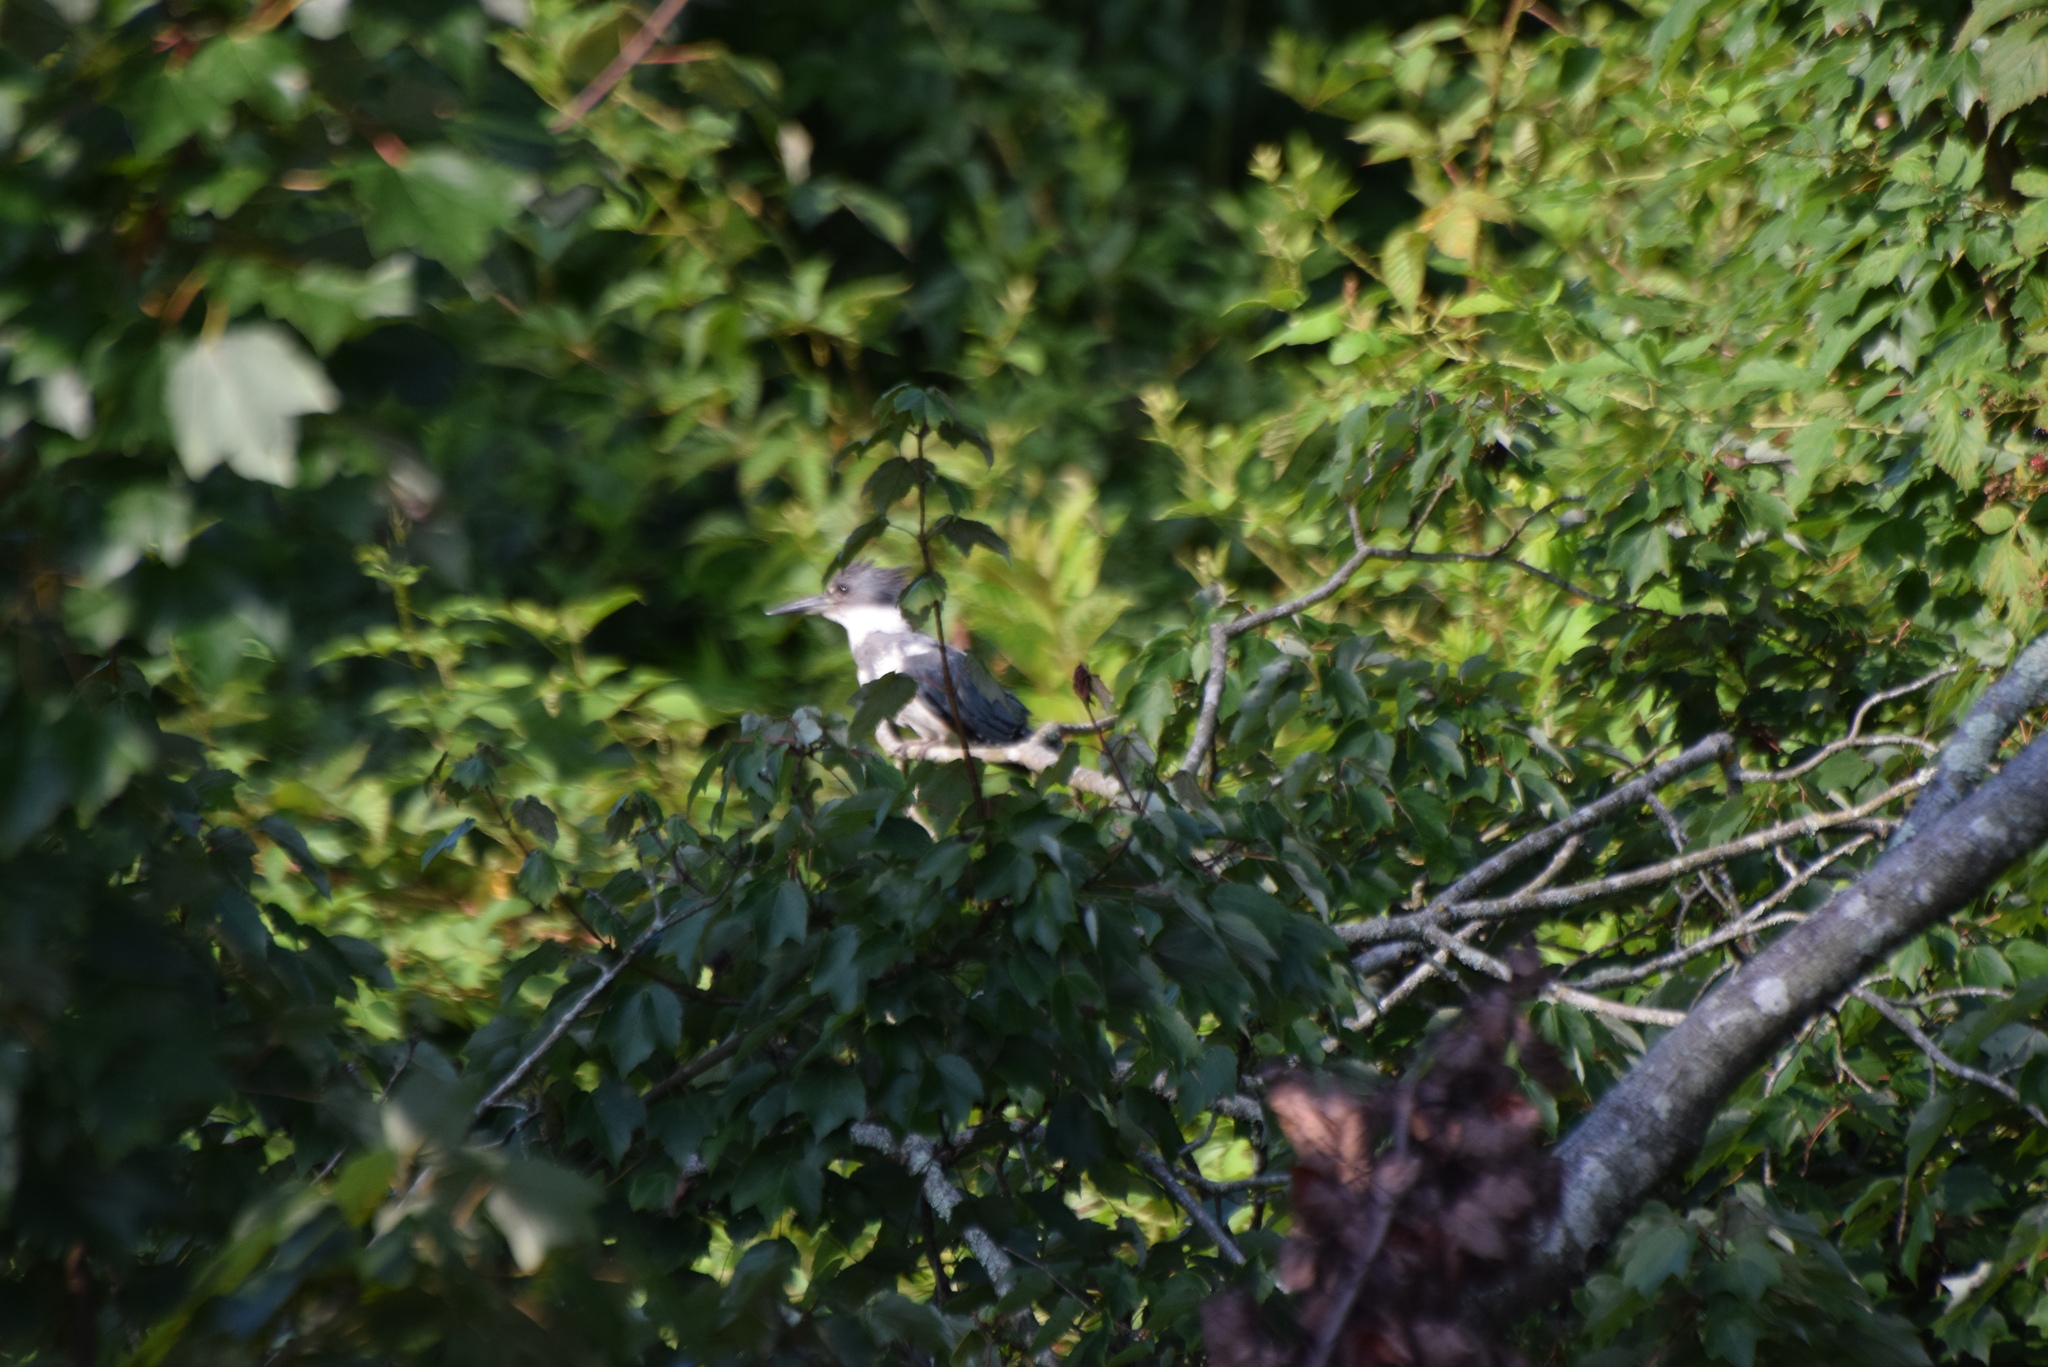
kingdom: Animalia
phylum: Chordata
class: Aves
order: Coraciiformes
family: Alcedinidae
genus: Megaceryle
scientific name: Megaceryle alcyon
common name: Belted kingfisher
